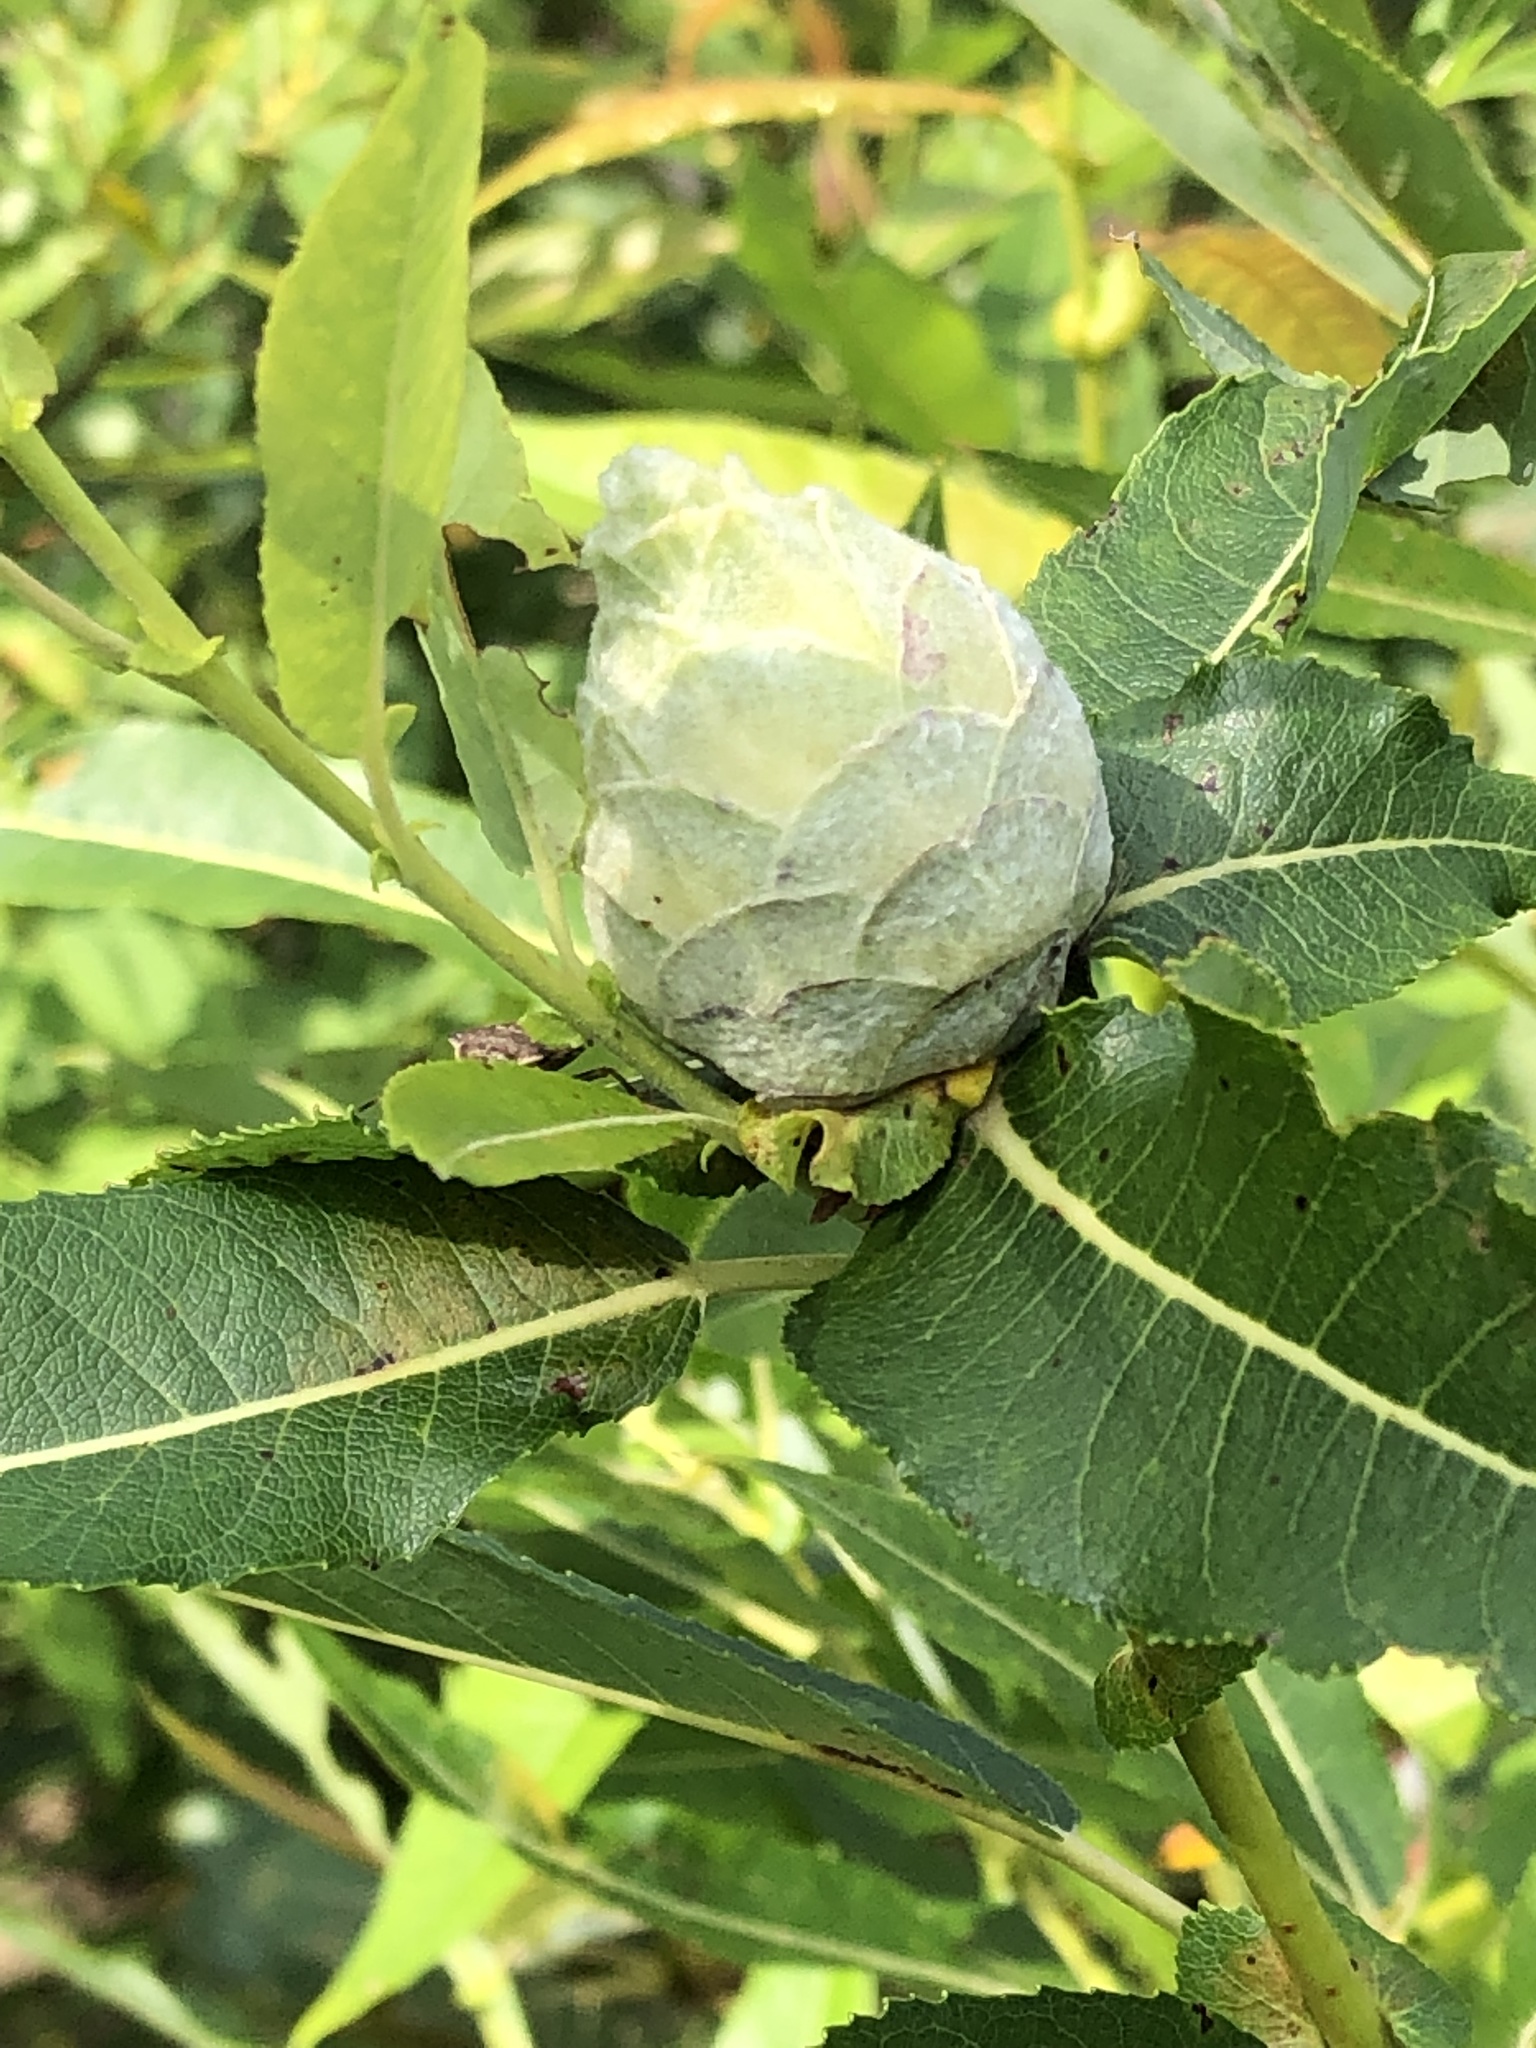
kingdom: Animalia
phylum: Arthropoda
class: Insecta
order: Diptera
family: Cecidomyiidae
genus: Rabdophaga
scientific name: Rabdophaga strobiloides
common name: Willow pinecone gall midge
